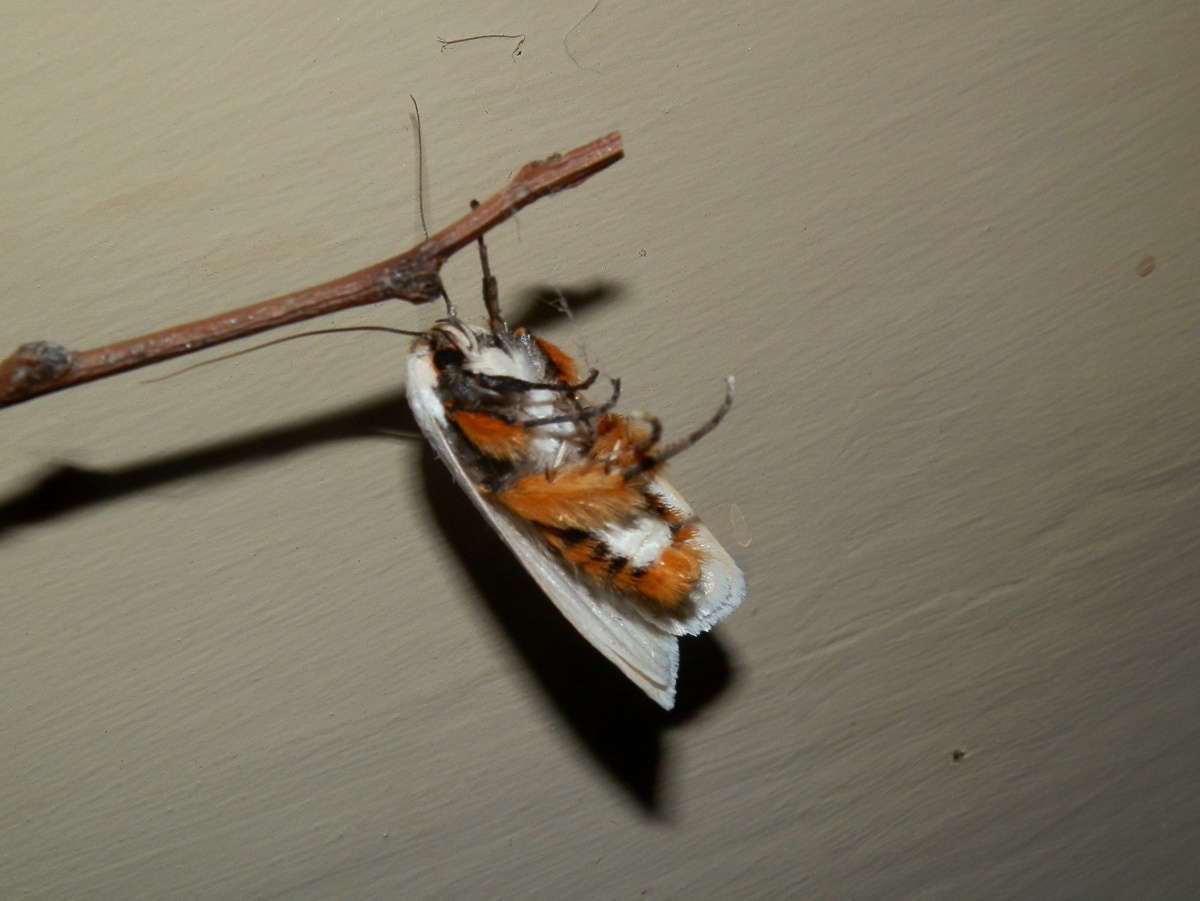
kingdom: Animalia
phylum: Arthropoda
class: Insecta
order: Lepidoptera
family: Xyloryctidae
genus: Maroga
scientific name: Maroga melanostigma
